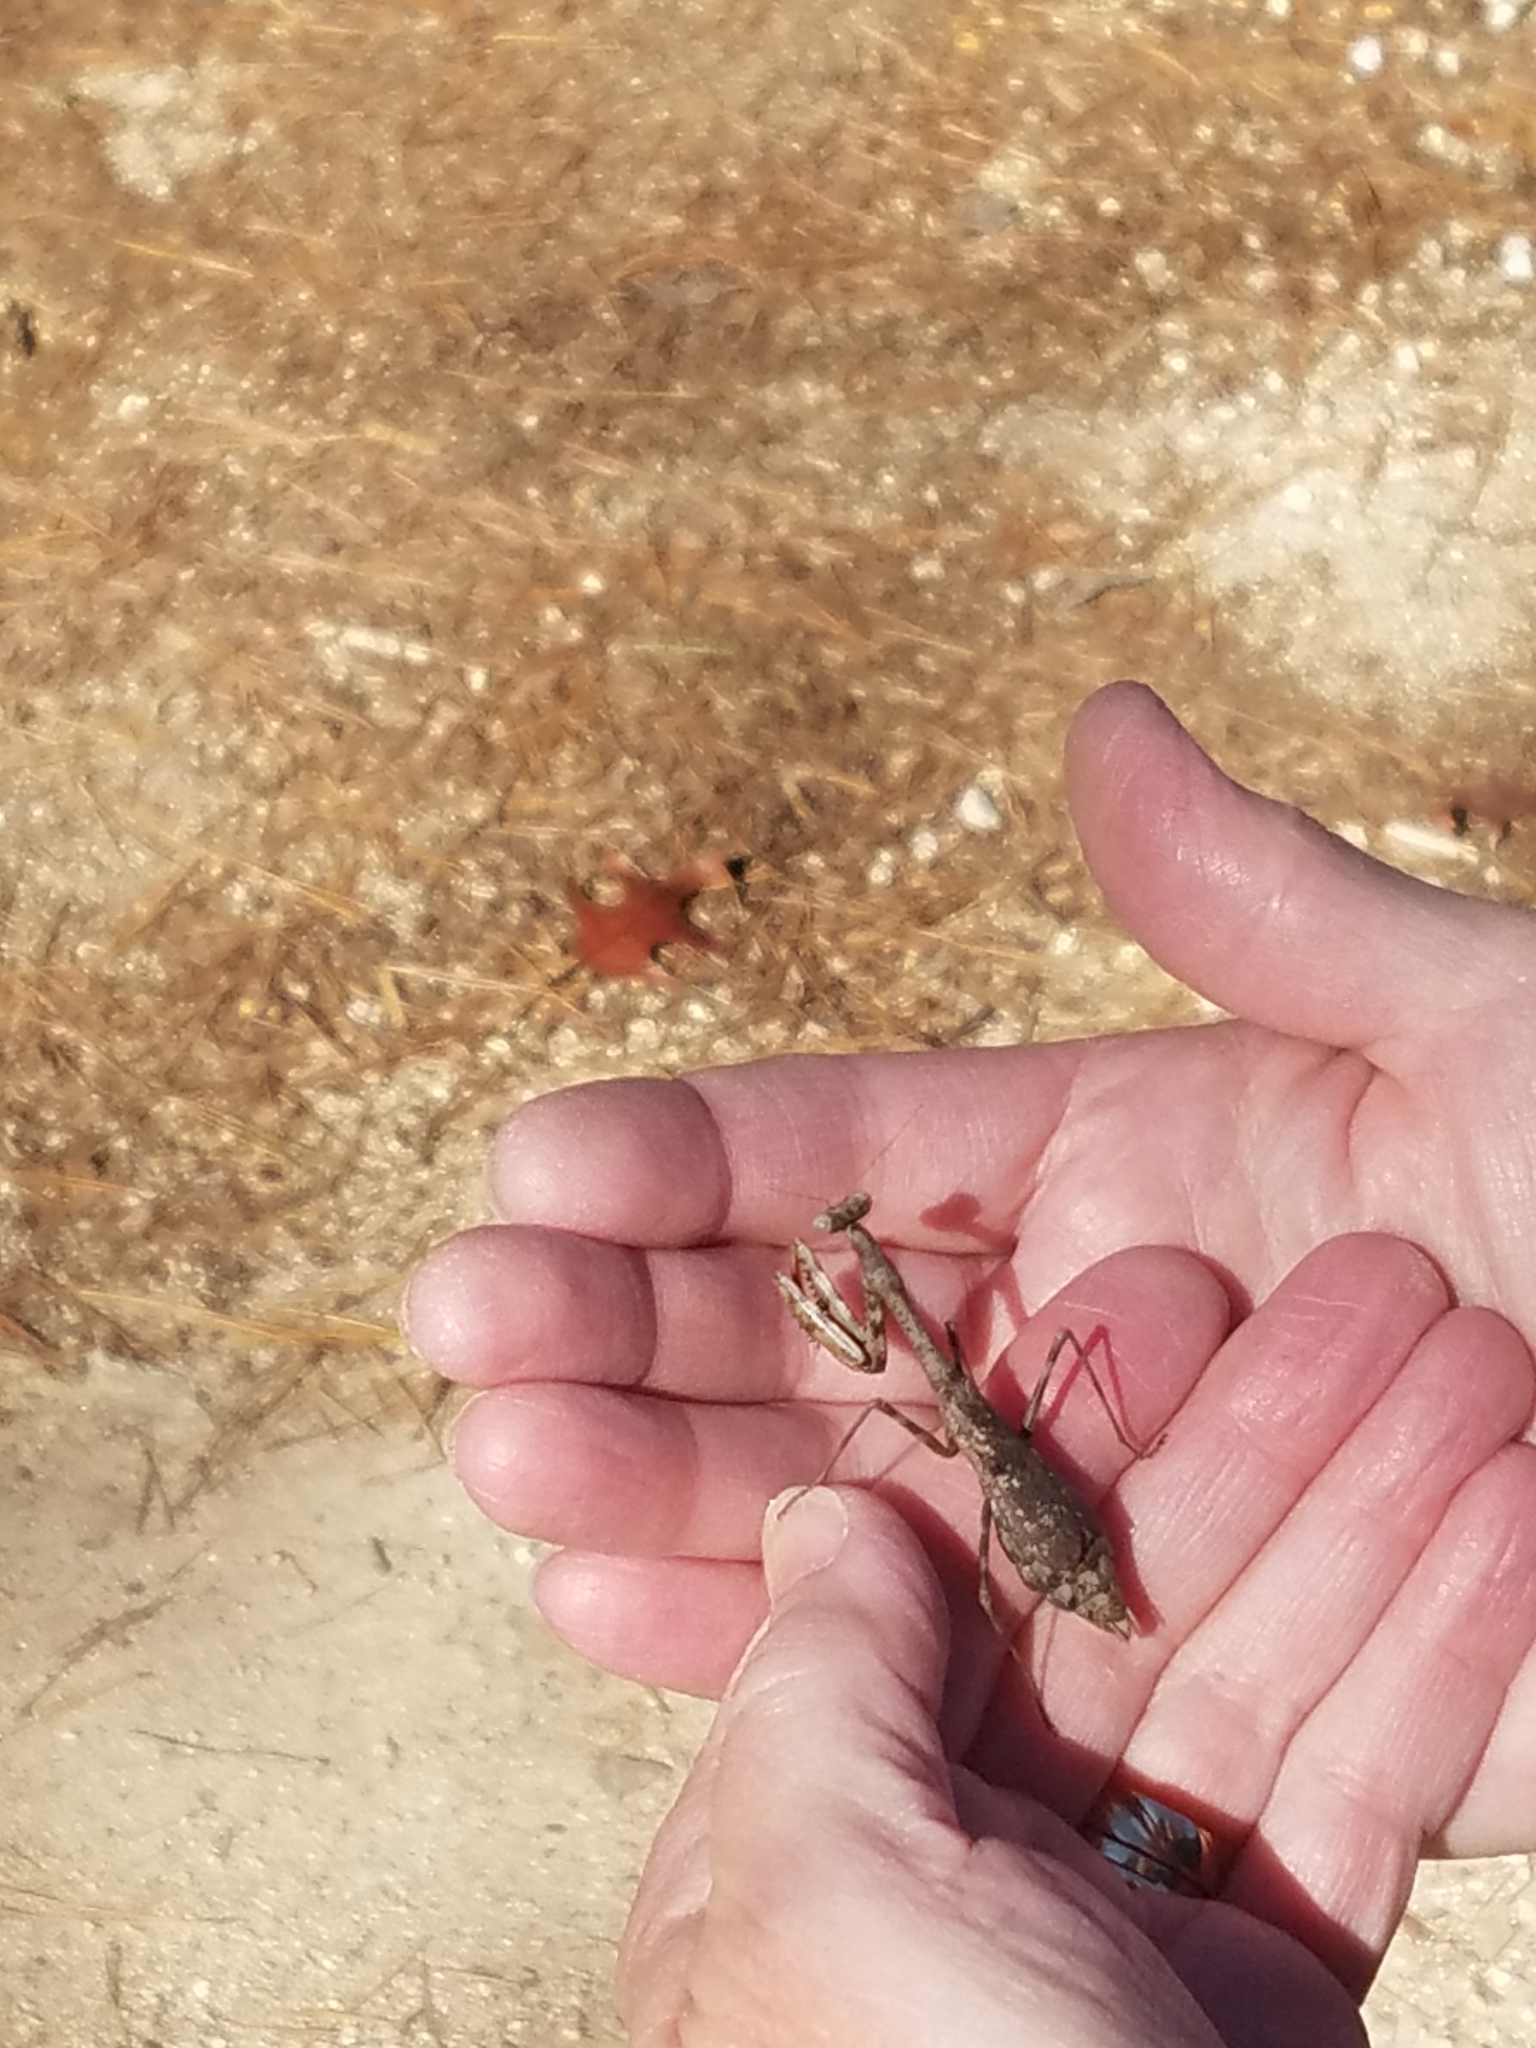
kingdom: Animalia
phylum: Arthropoda
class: Insecta
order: Mantodea
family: Mantidae
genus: Stagmomantis
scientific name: Stagmomantis carolina
